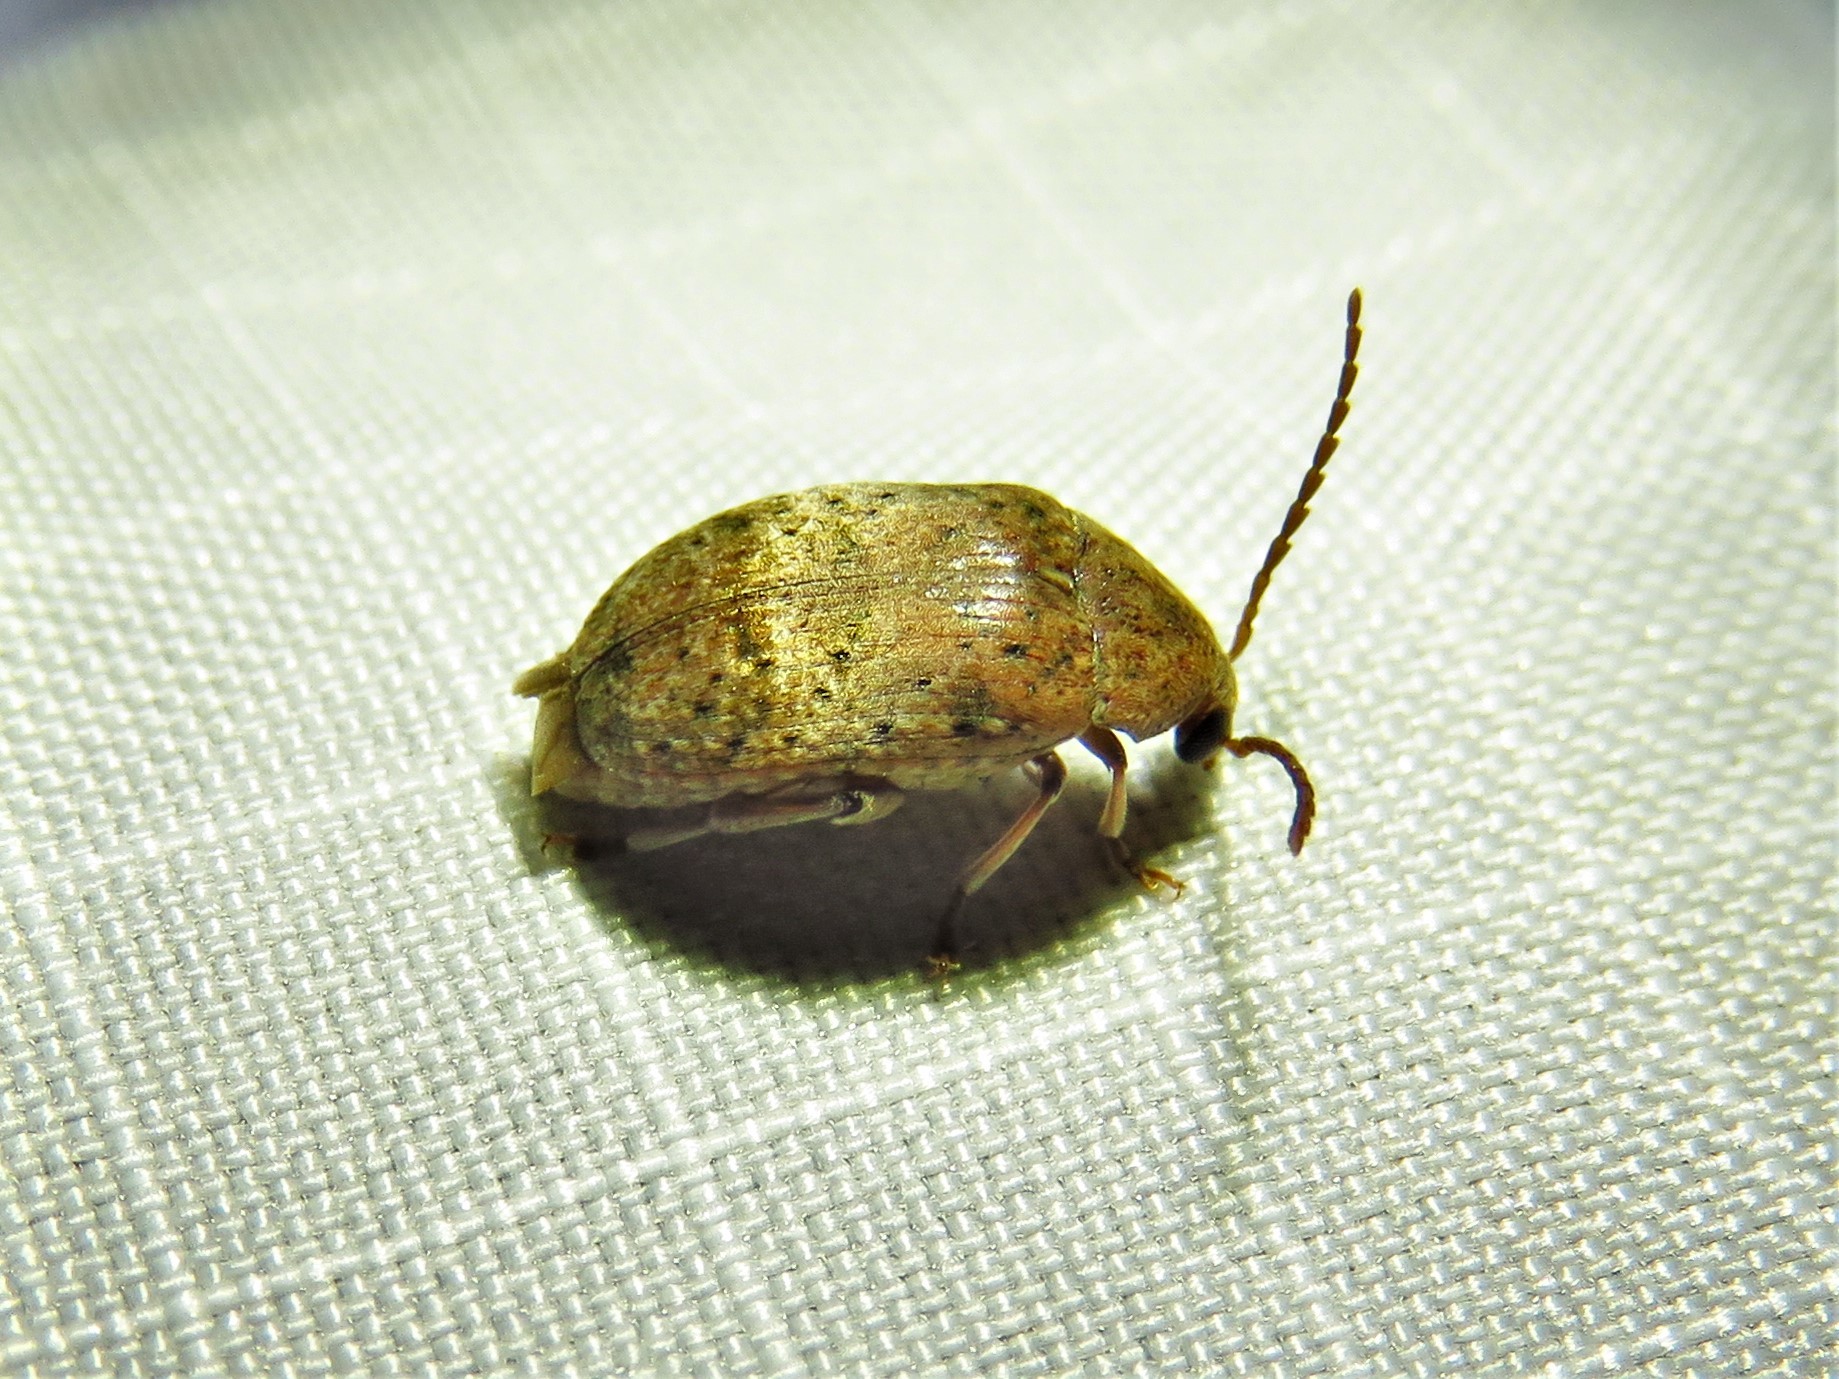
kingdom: Animalia
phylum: Arthropoda
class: Insecta
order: Coleoptera
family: Chrysomelidae
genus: Amblycerus
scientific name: Amblycerus robiniae
